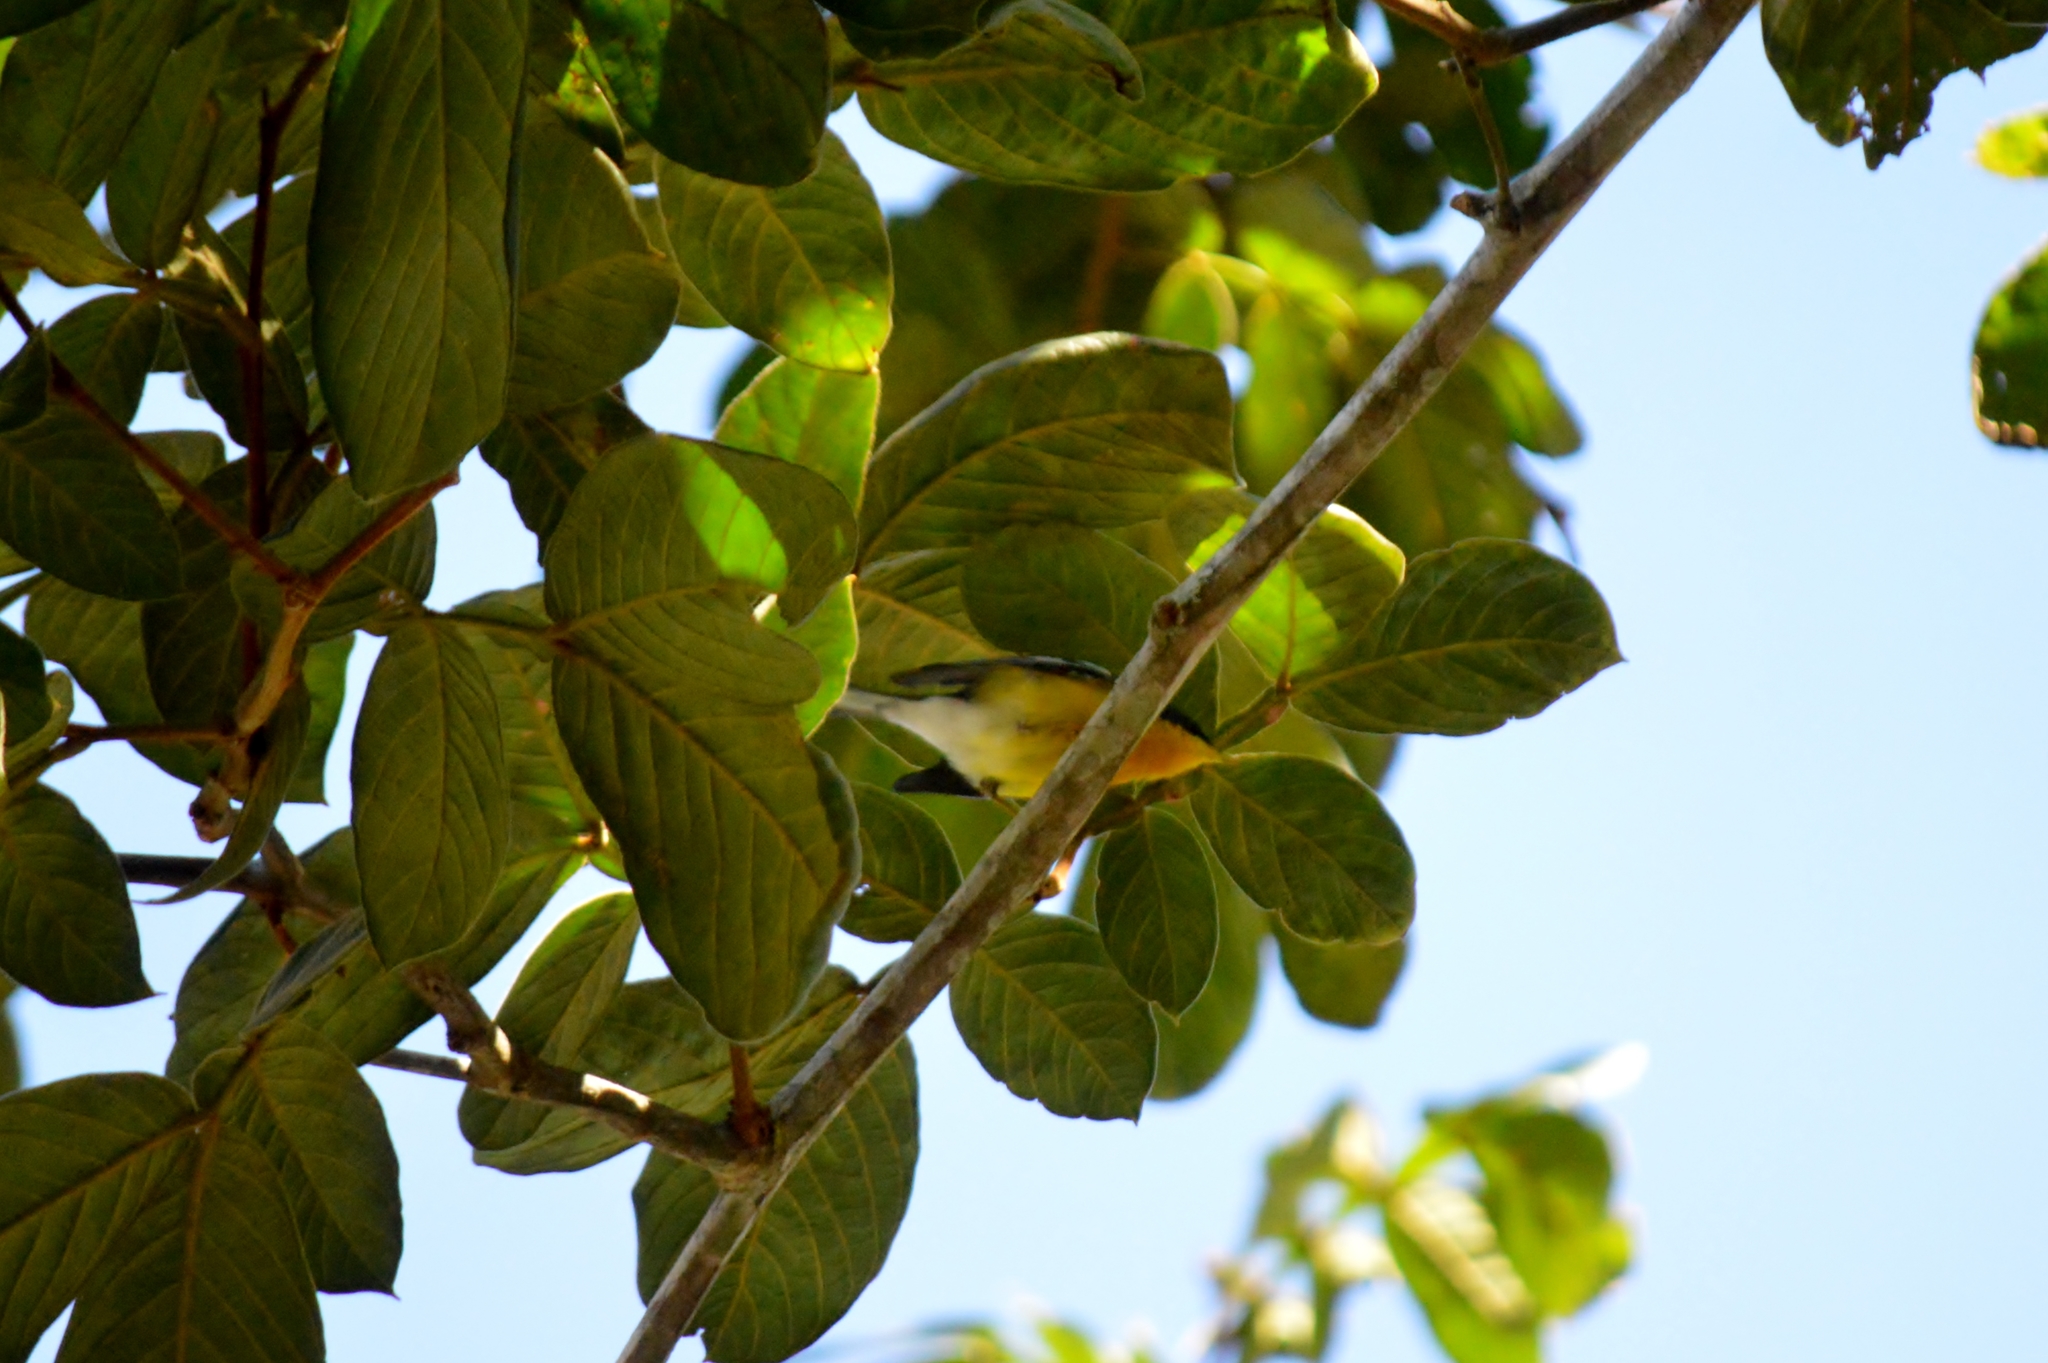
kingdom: Animalia
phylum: Chordata
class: Aves
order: Passeriformes
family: Parulidae
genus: Setophaga
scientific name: Setophaga pitiayumi
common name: Tropical parula
